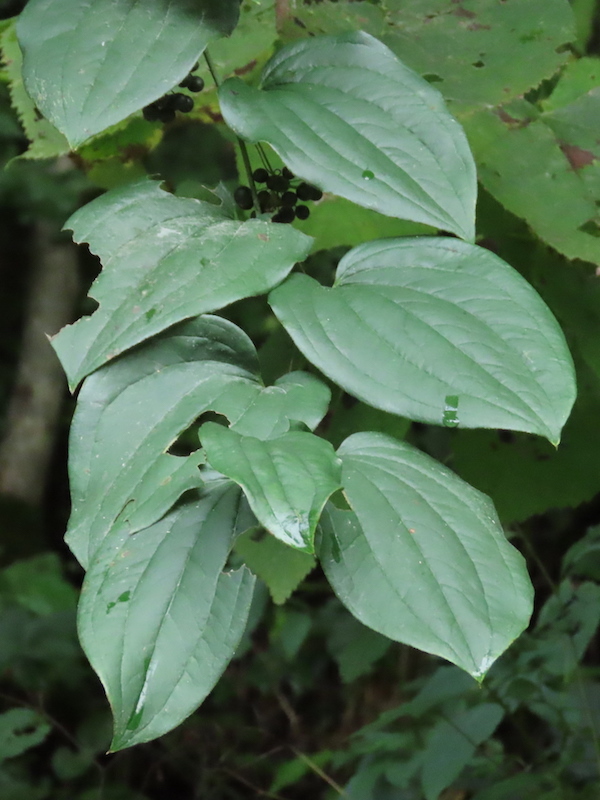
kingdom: Plantae
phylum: Tracheophyta
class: Liliopsida
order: Liliales
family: Smilacaceae
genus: Smilax
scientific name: Smilax tamnoides
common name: Hellfetter
